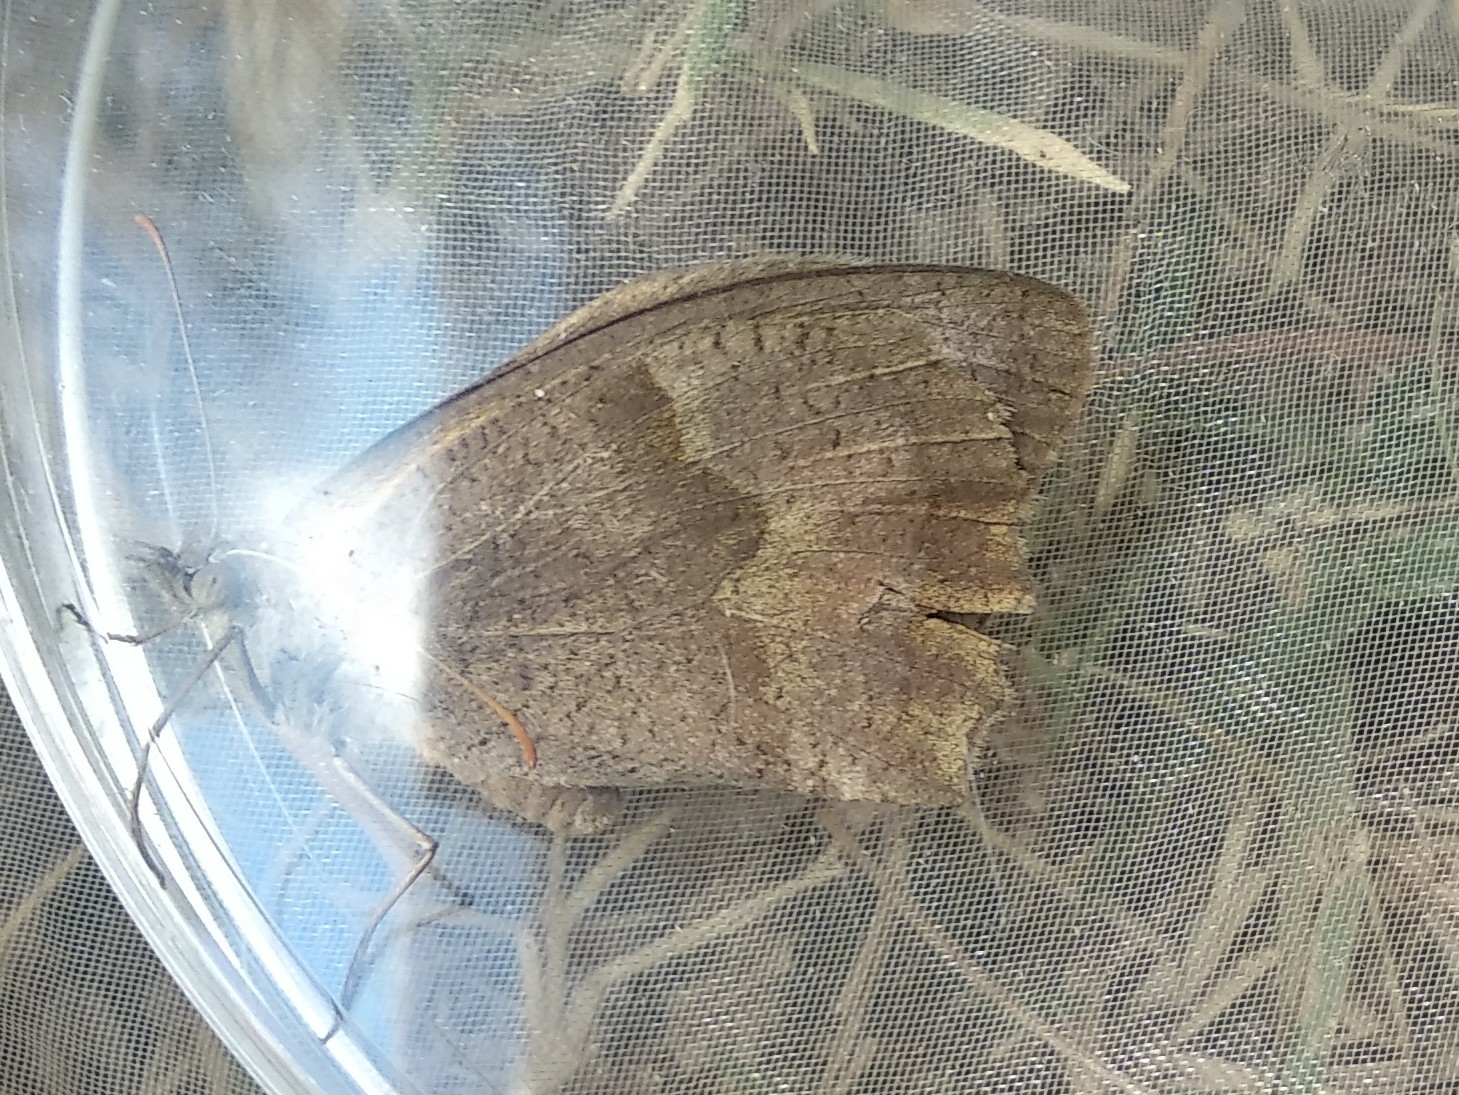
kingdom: Animalia
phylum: Arthropoda
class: Insecta
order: Lepidoptera
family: Nymphalidae
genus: Maniola
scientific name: Maniola jurtina
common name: Meadow brown
